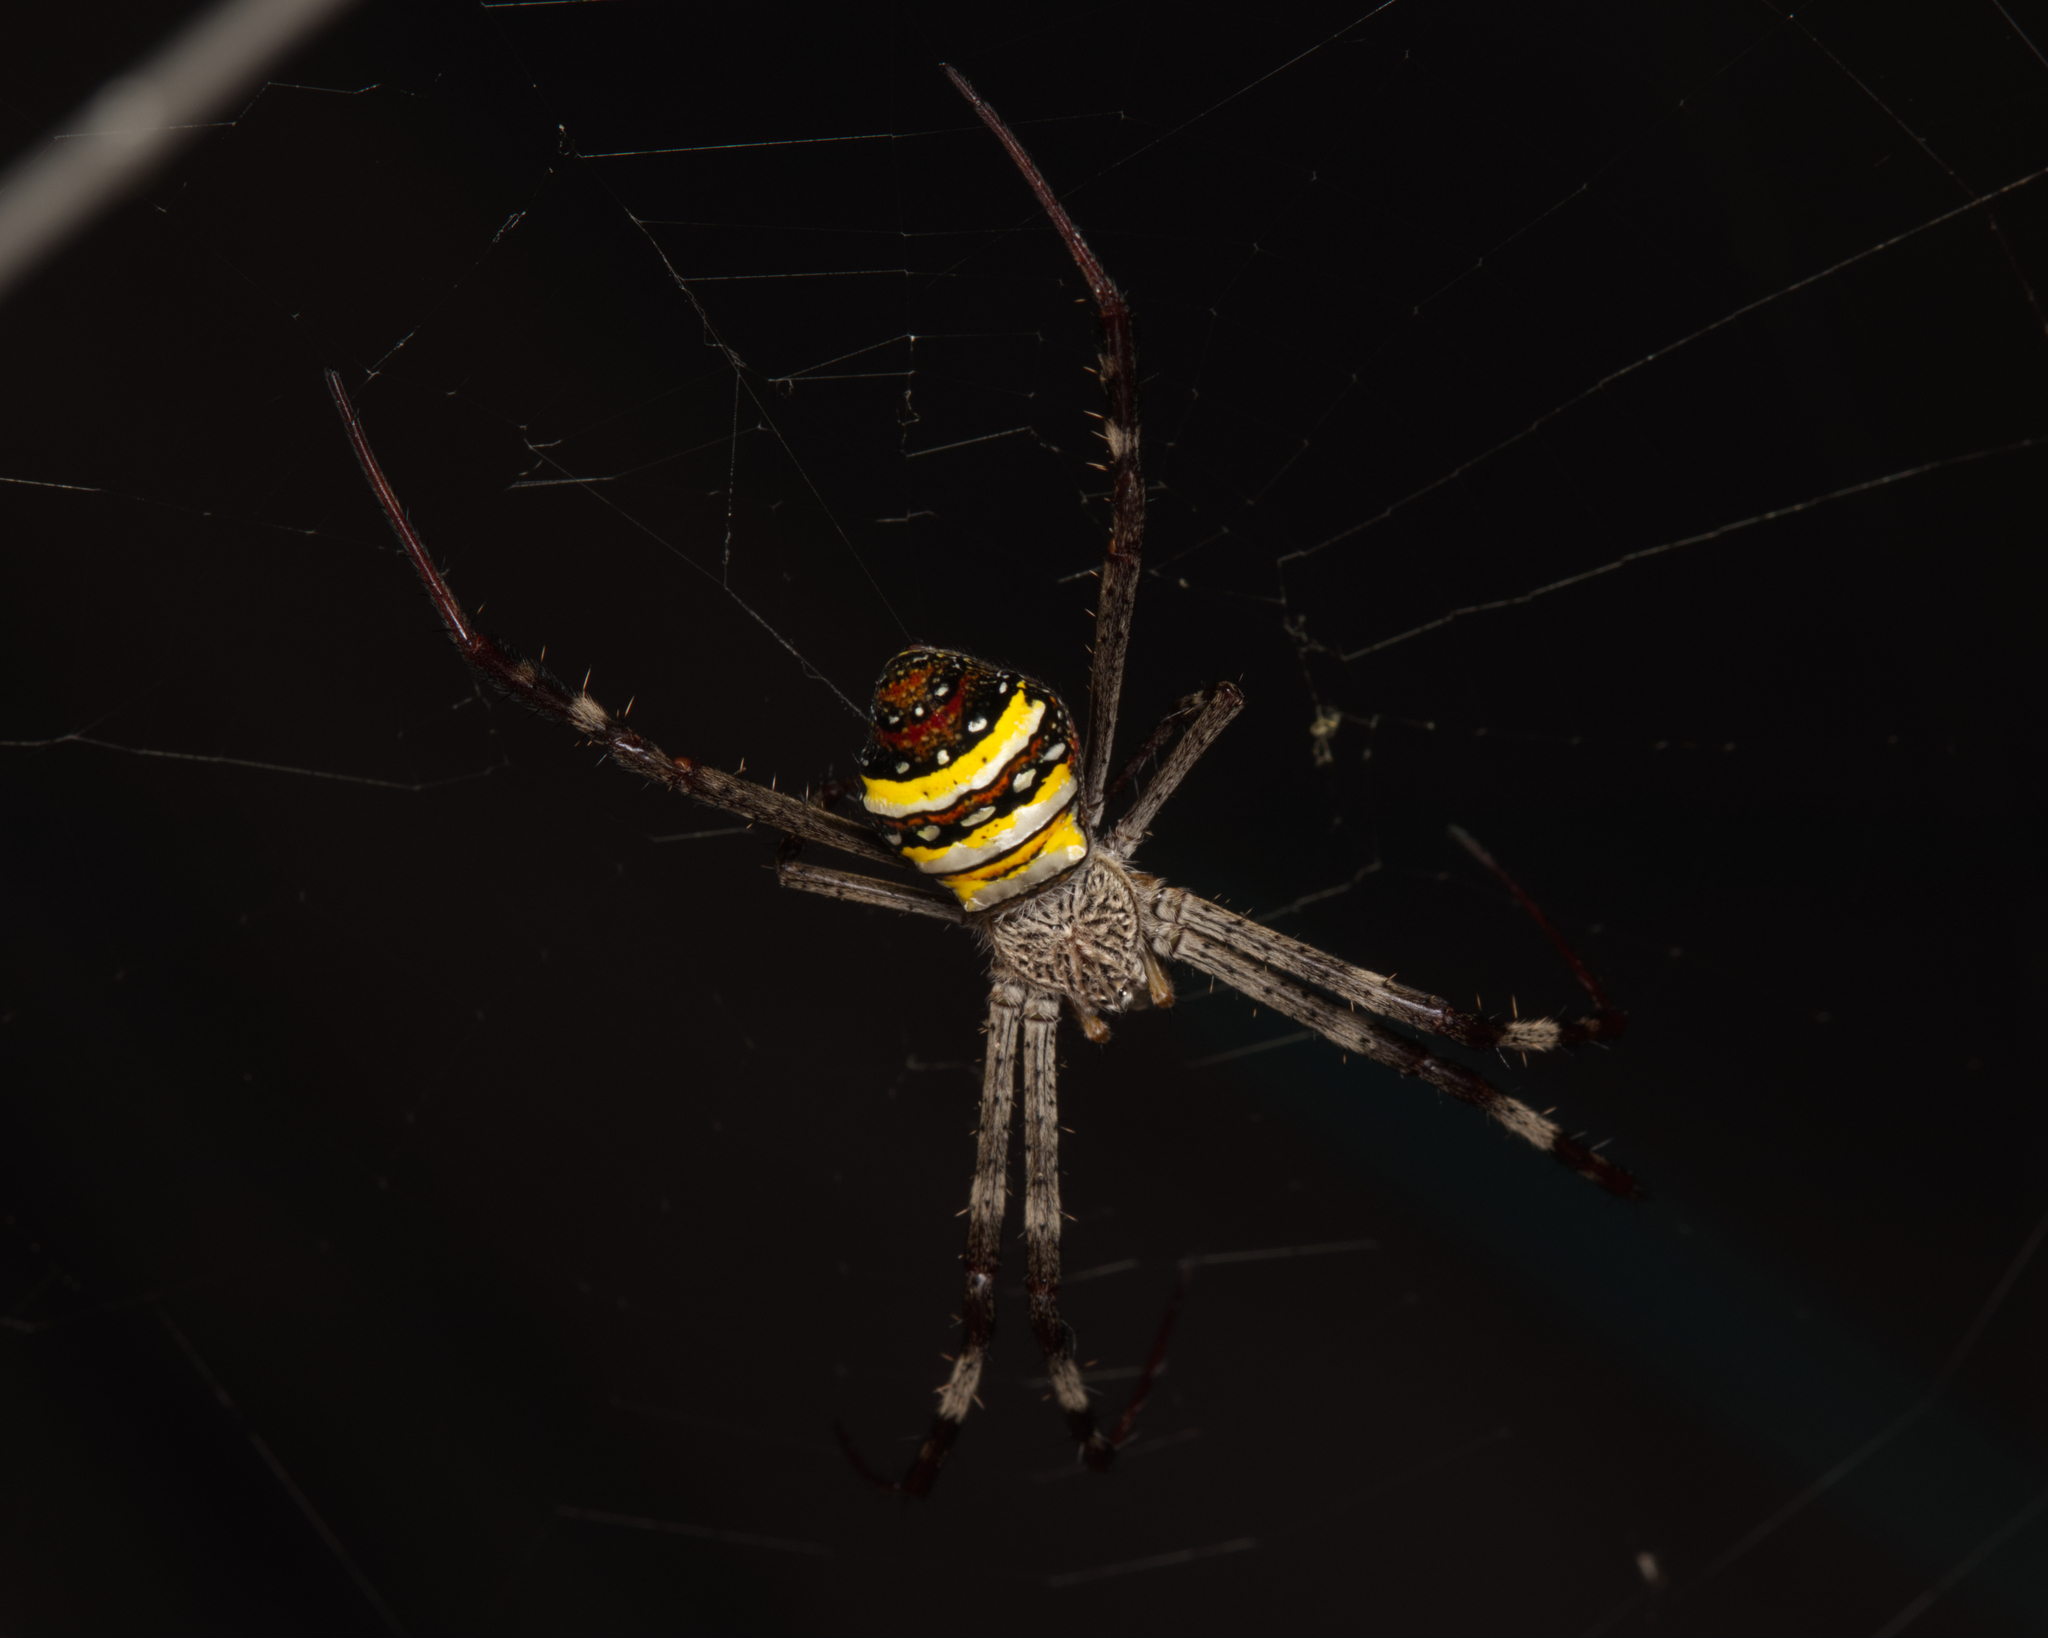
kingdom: Animalia
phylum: Arthropoda
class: Arachnida
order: Araneae
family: Araneidae
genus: Argiope
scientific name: Argiope aetherea
